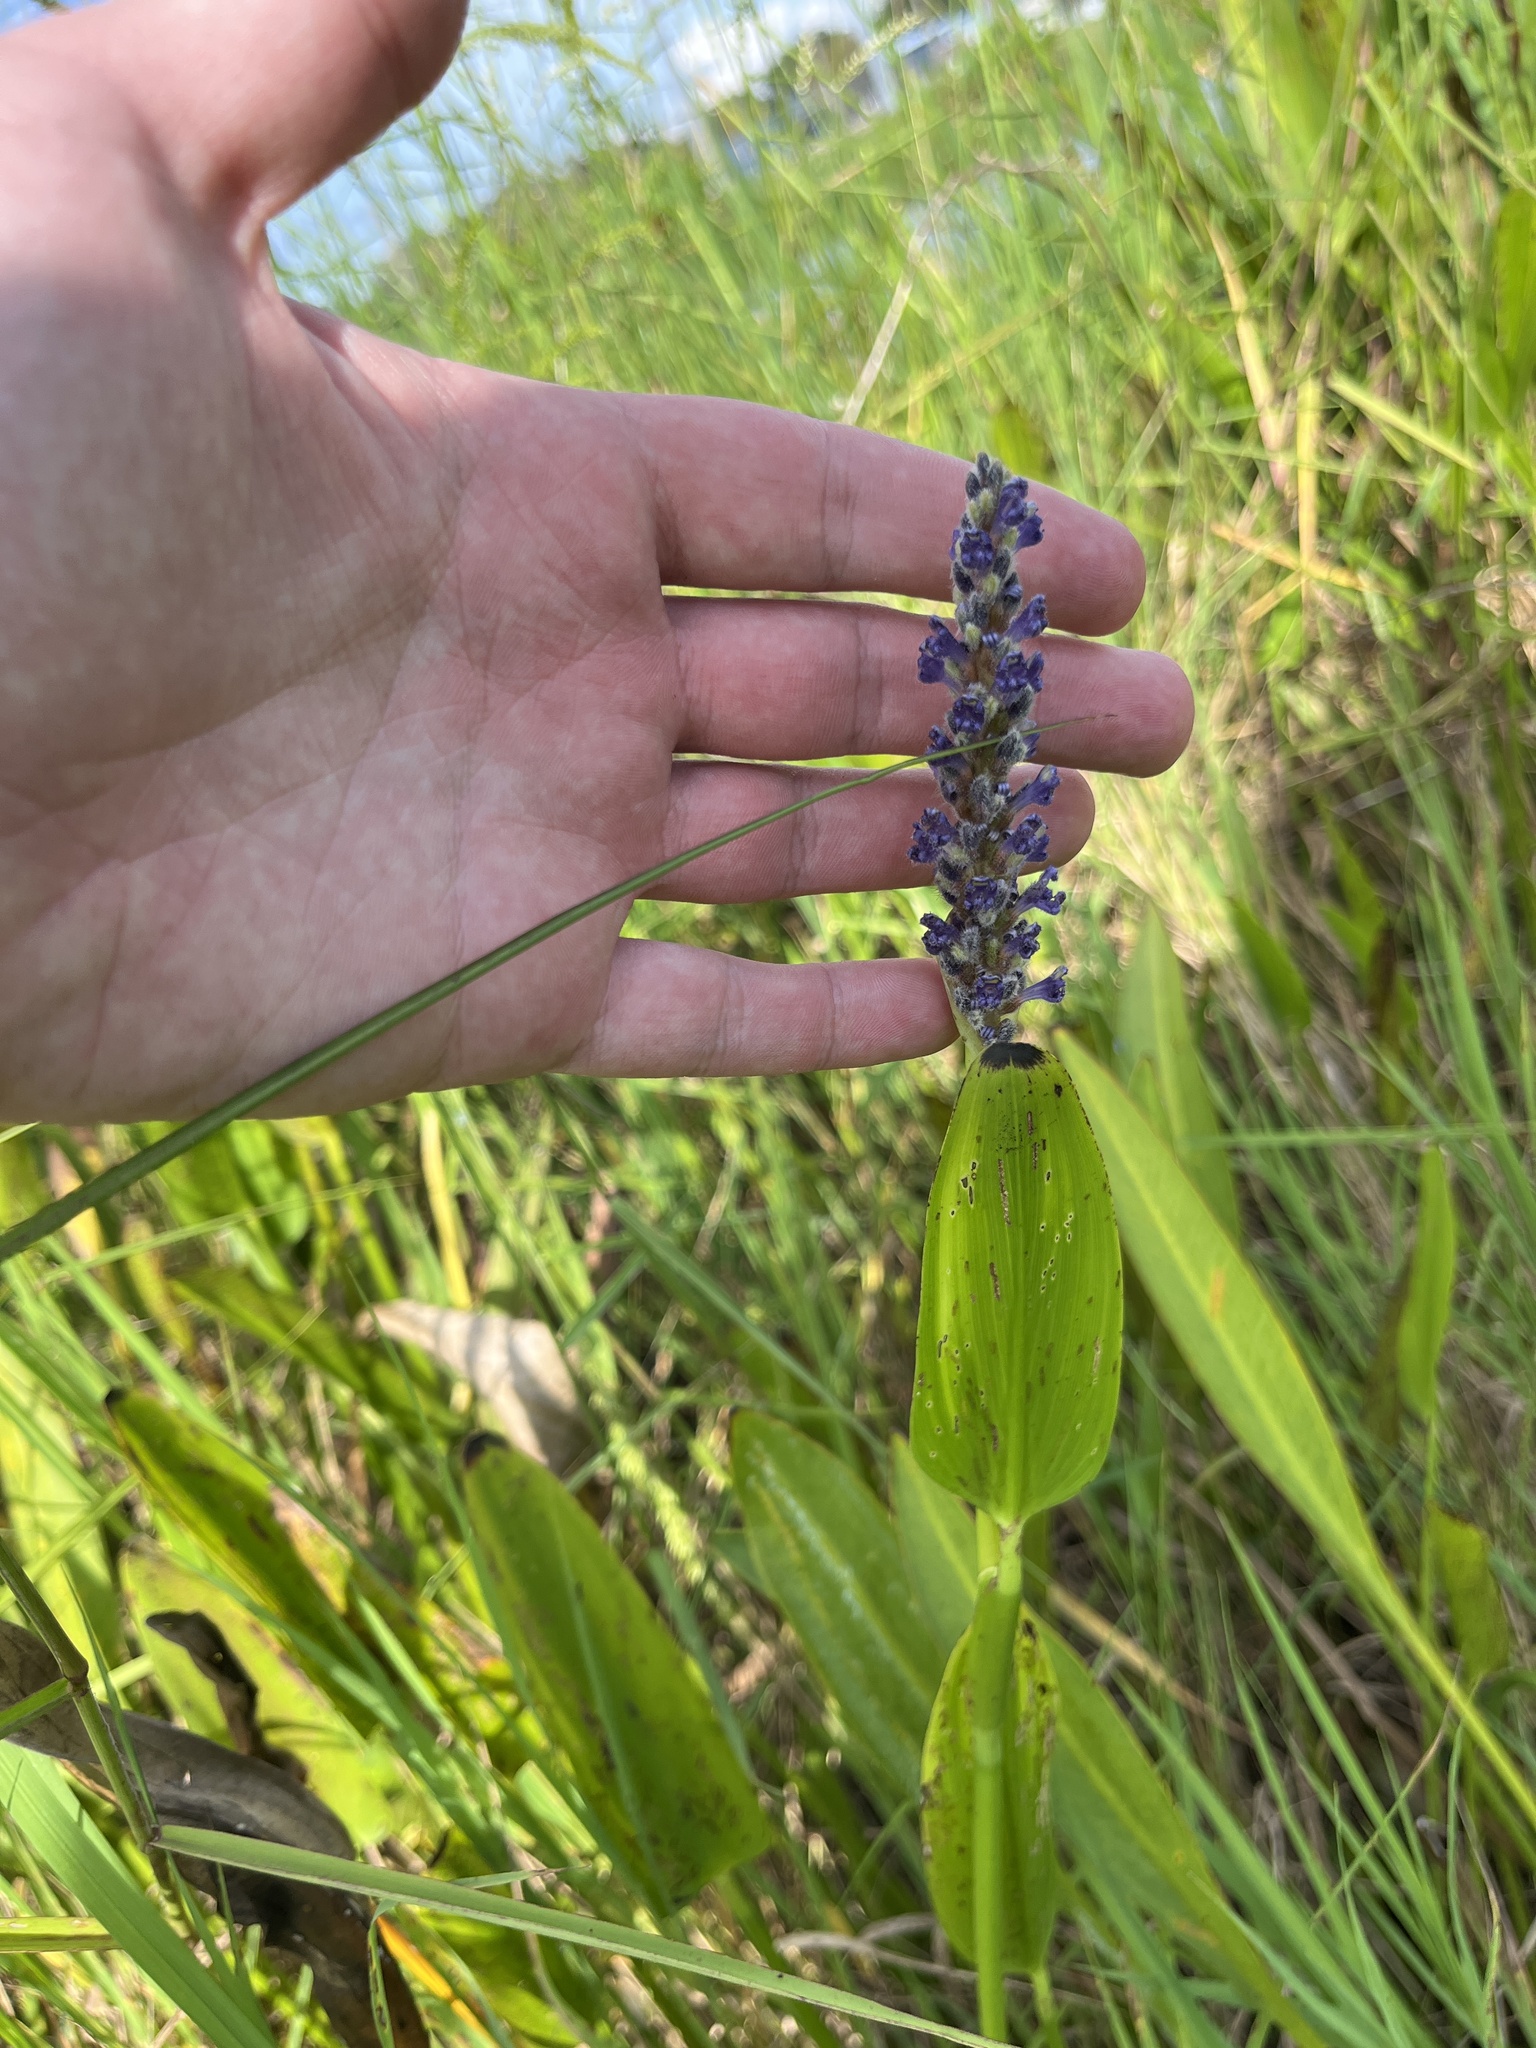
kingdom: Plantae
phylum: Tracheophyta
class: Liliopsida
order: Commelinales
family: Pontederiaceae
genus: Pontederia
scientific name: Pontederia cordata
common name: Pickerelweed
